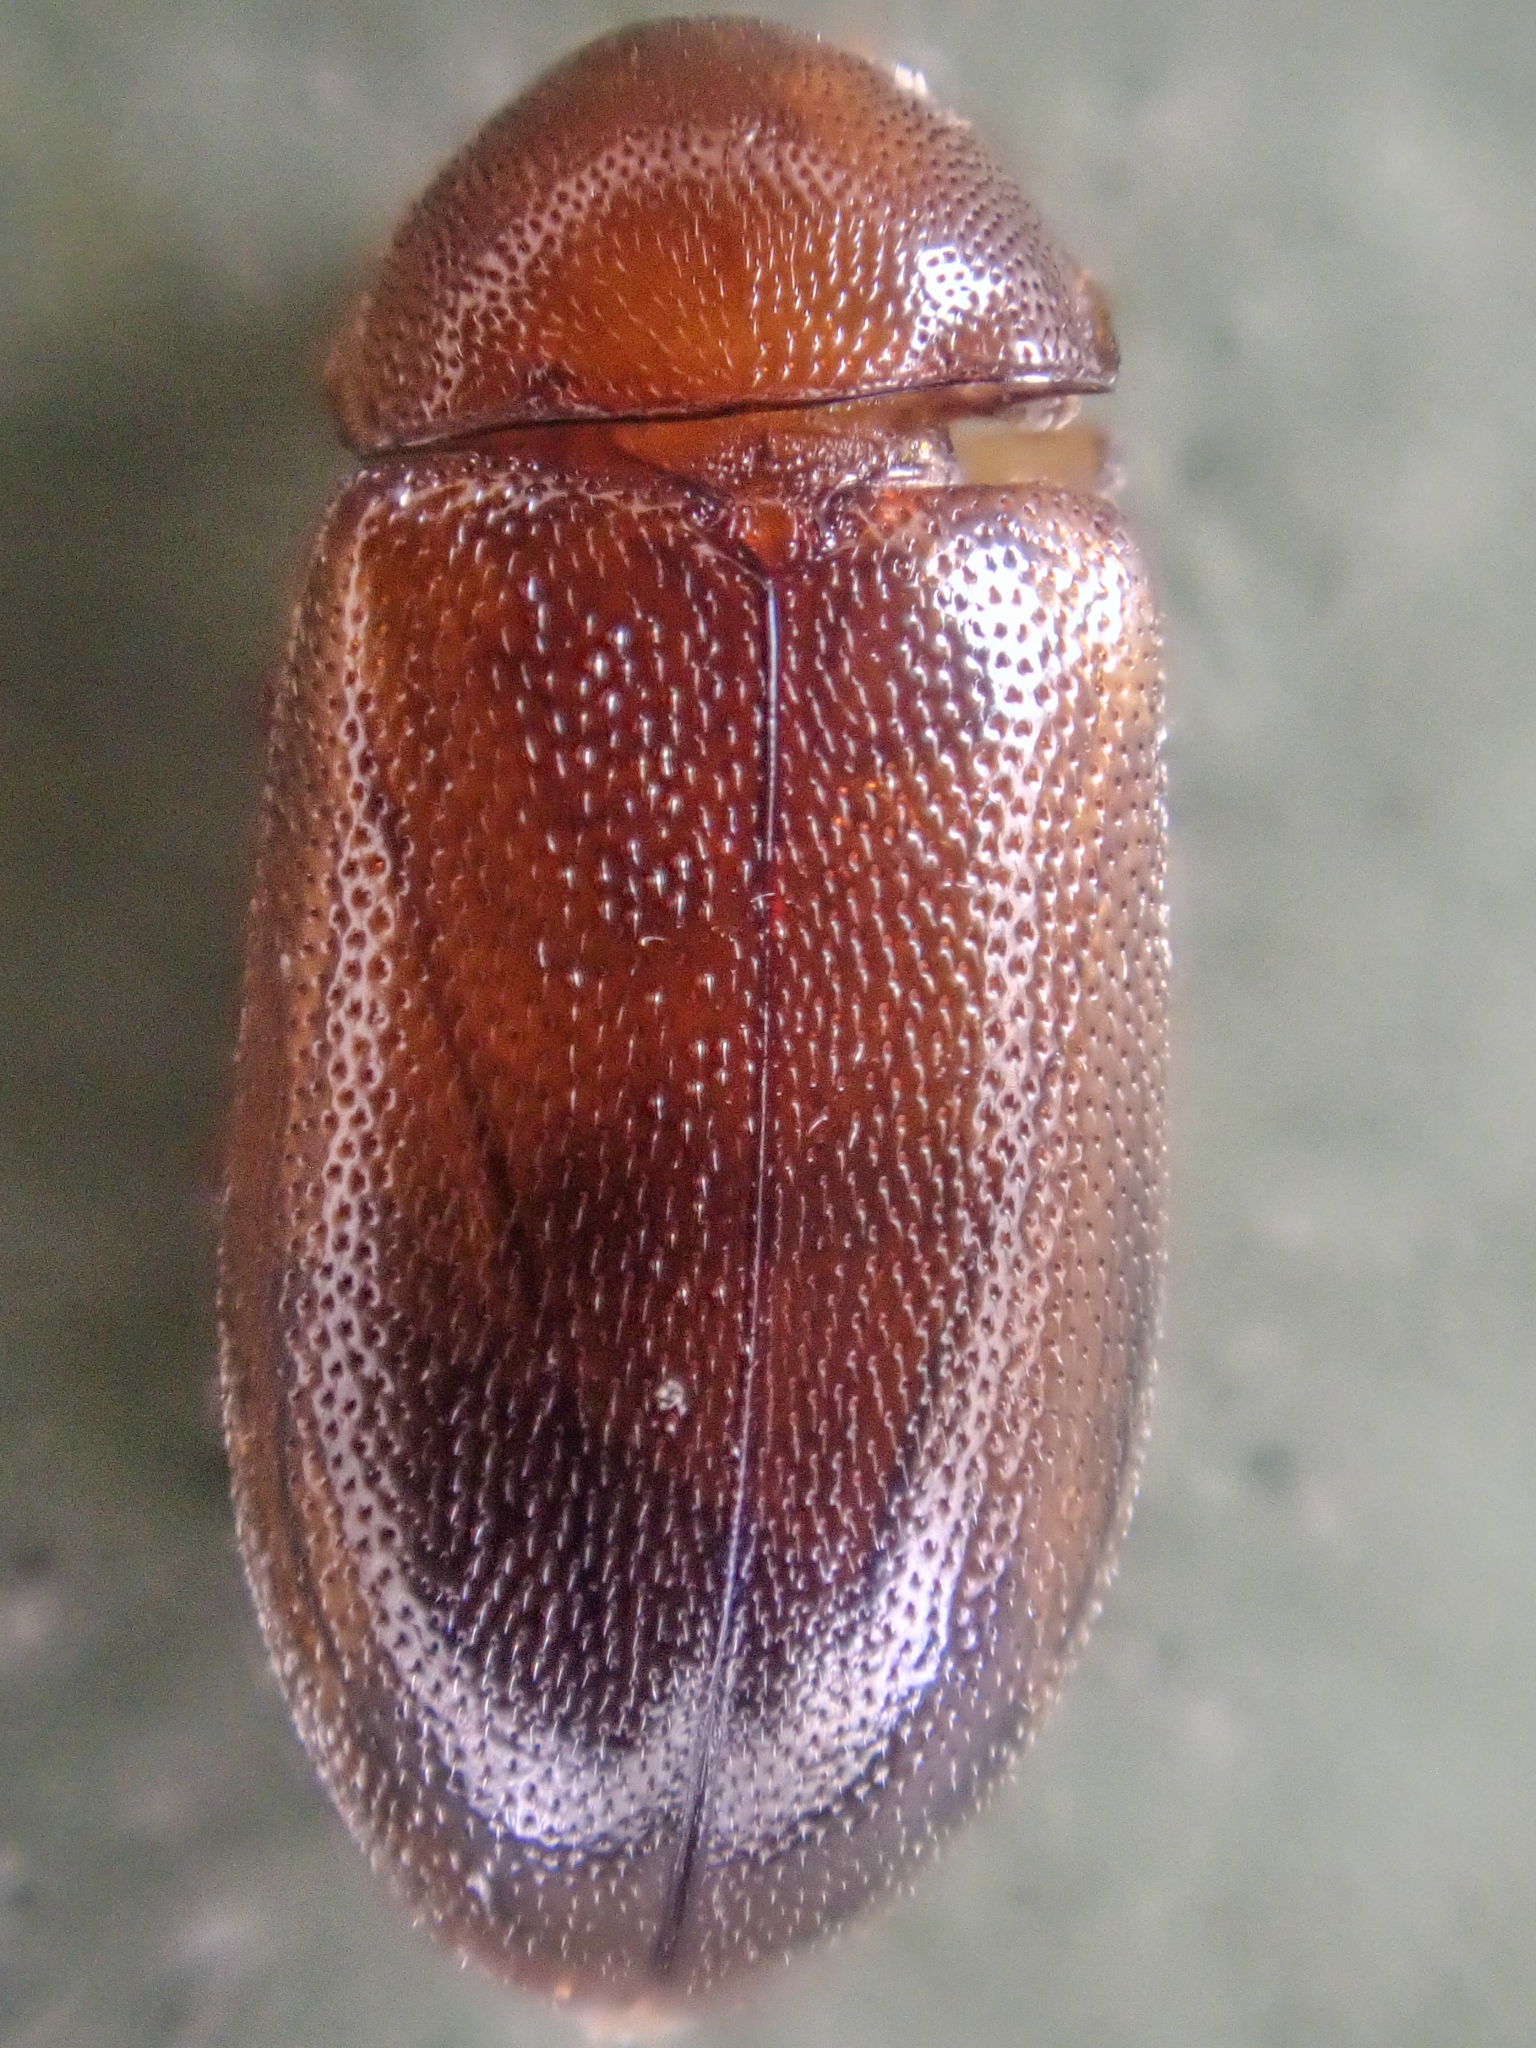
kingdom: Animalia
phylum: Arthropoda
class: Insecta
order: Coleoptera
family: Tetratomidae
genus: Tetratoma
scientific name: Tetratoma concolor
